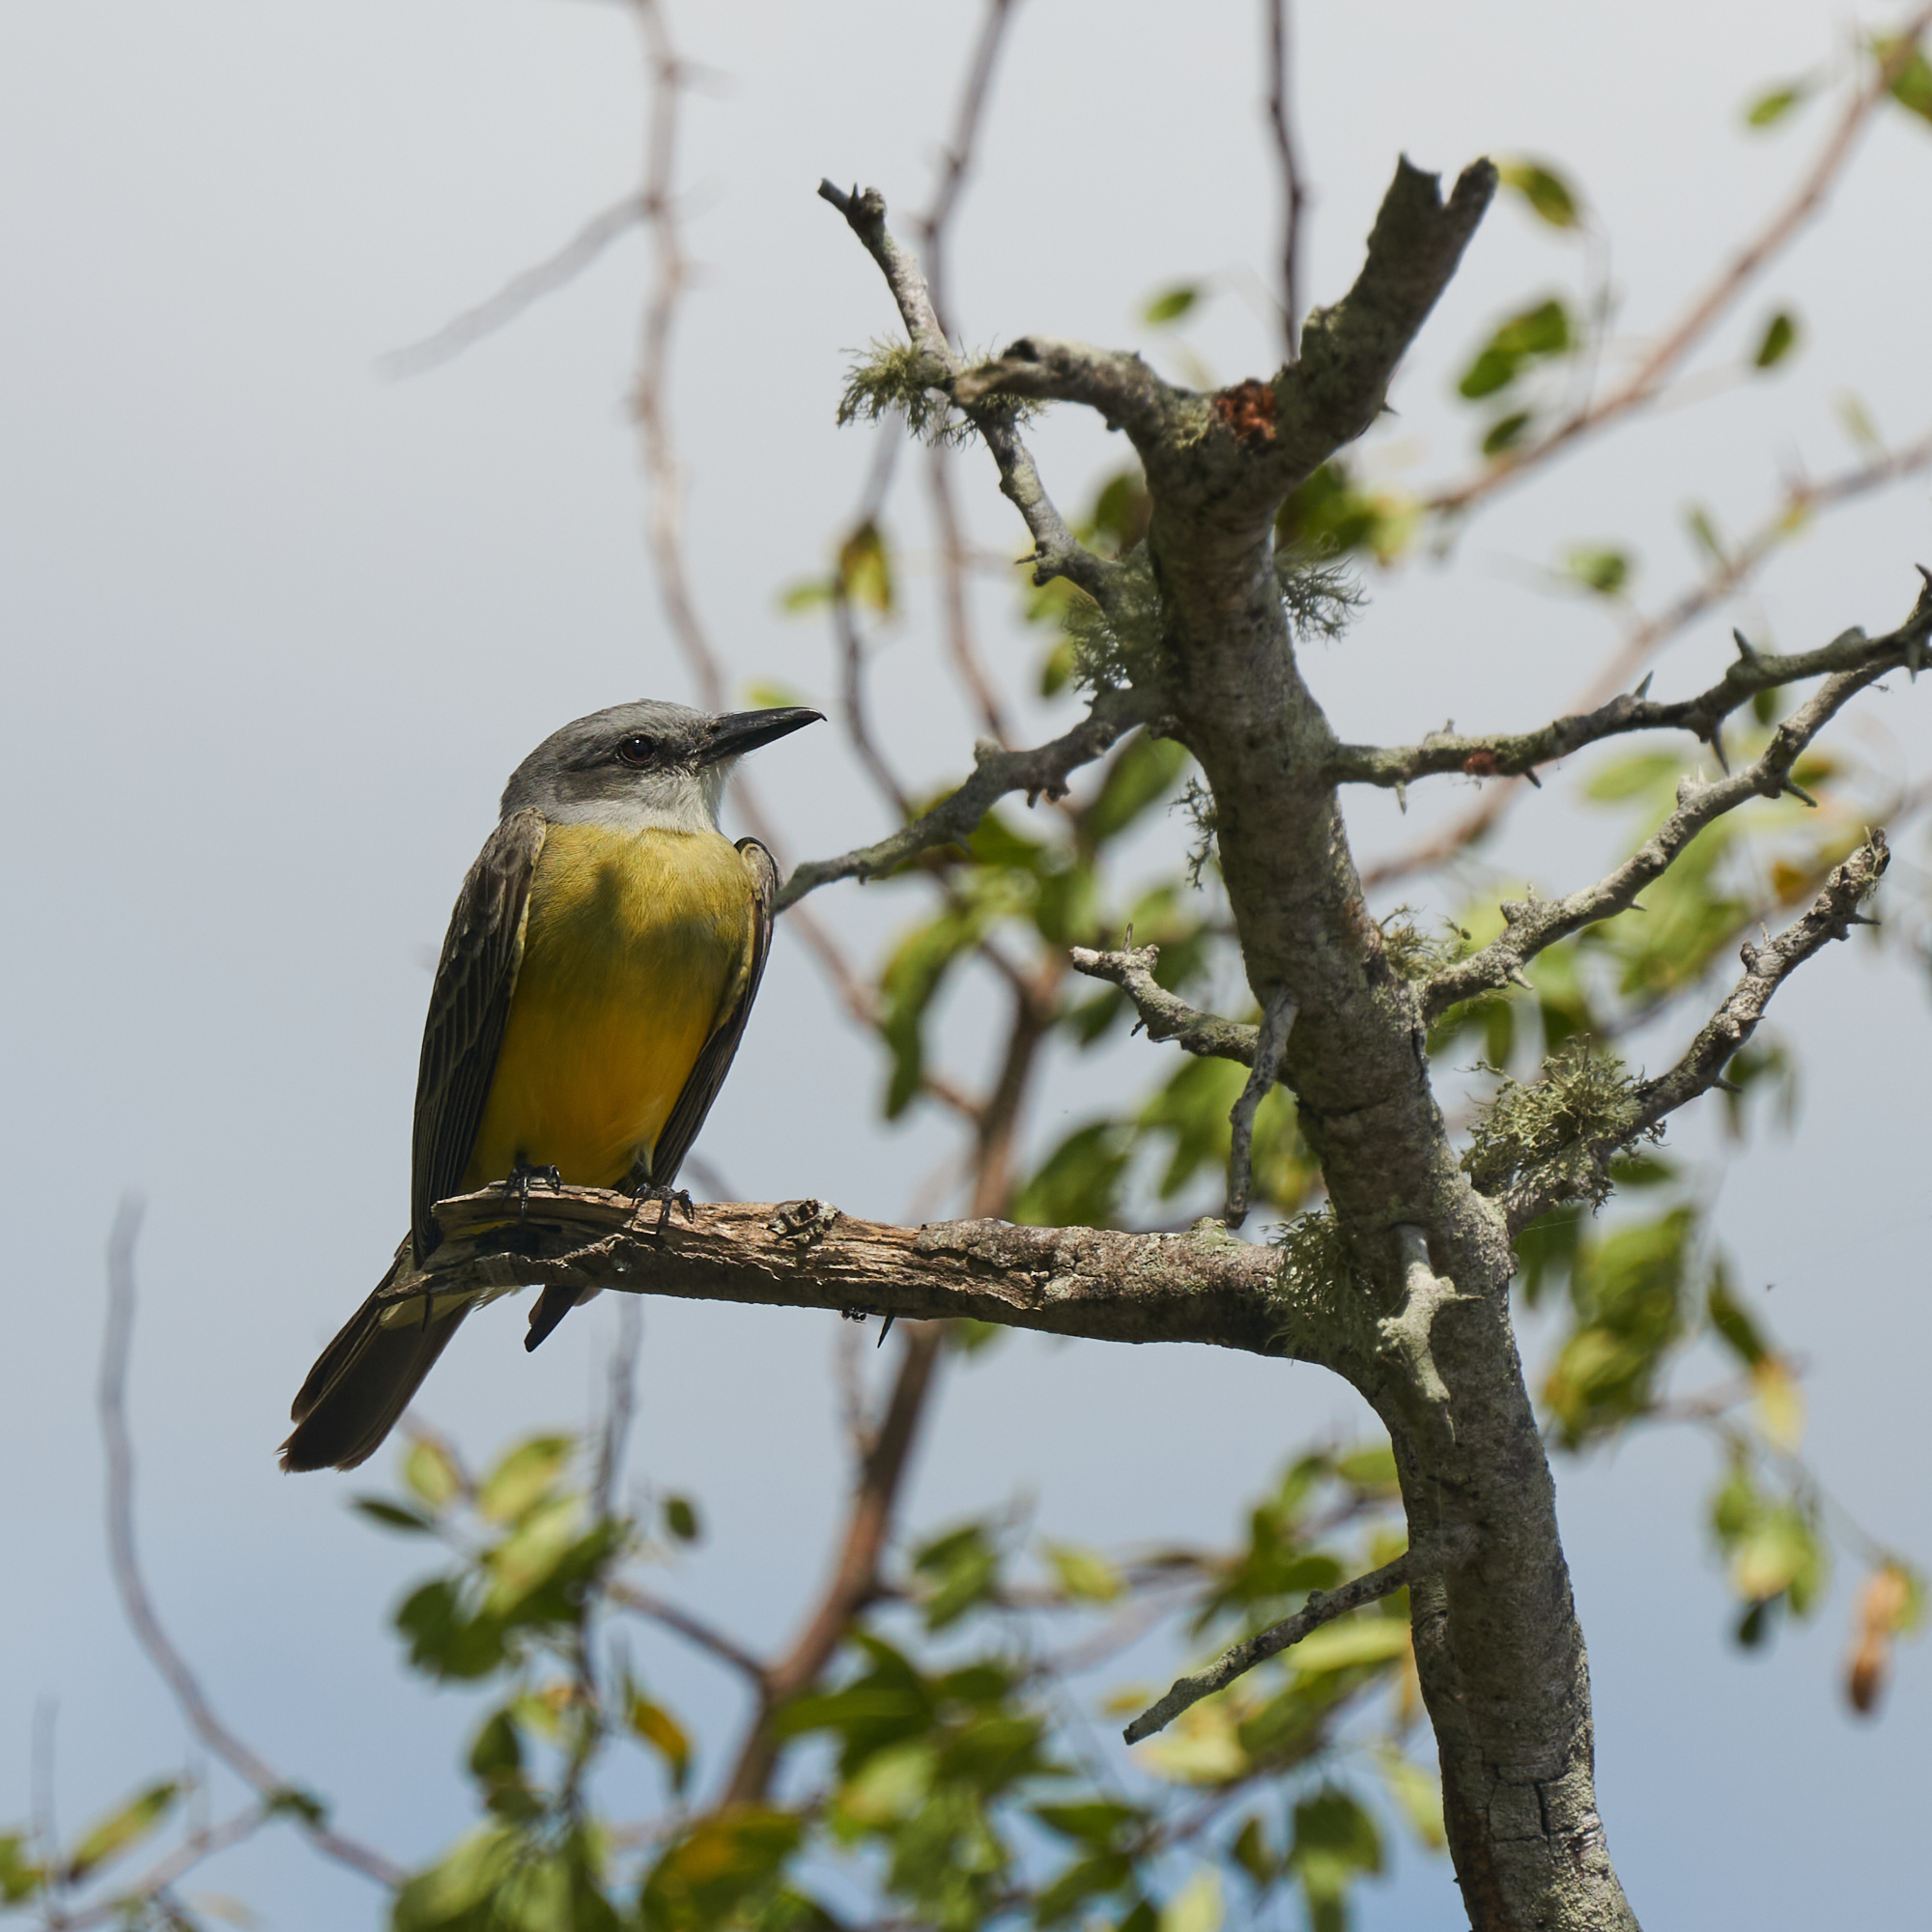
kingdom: Animalia
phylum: Chordata
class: Aves
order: Passeriformes
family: Tyrannidae
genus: Tyrannus
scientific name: Tyrannus melancholicus
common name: Tropical kingbird
